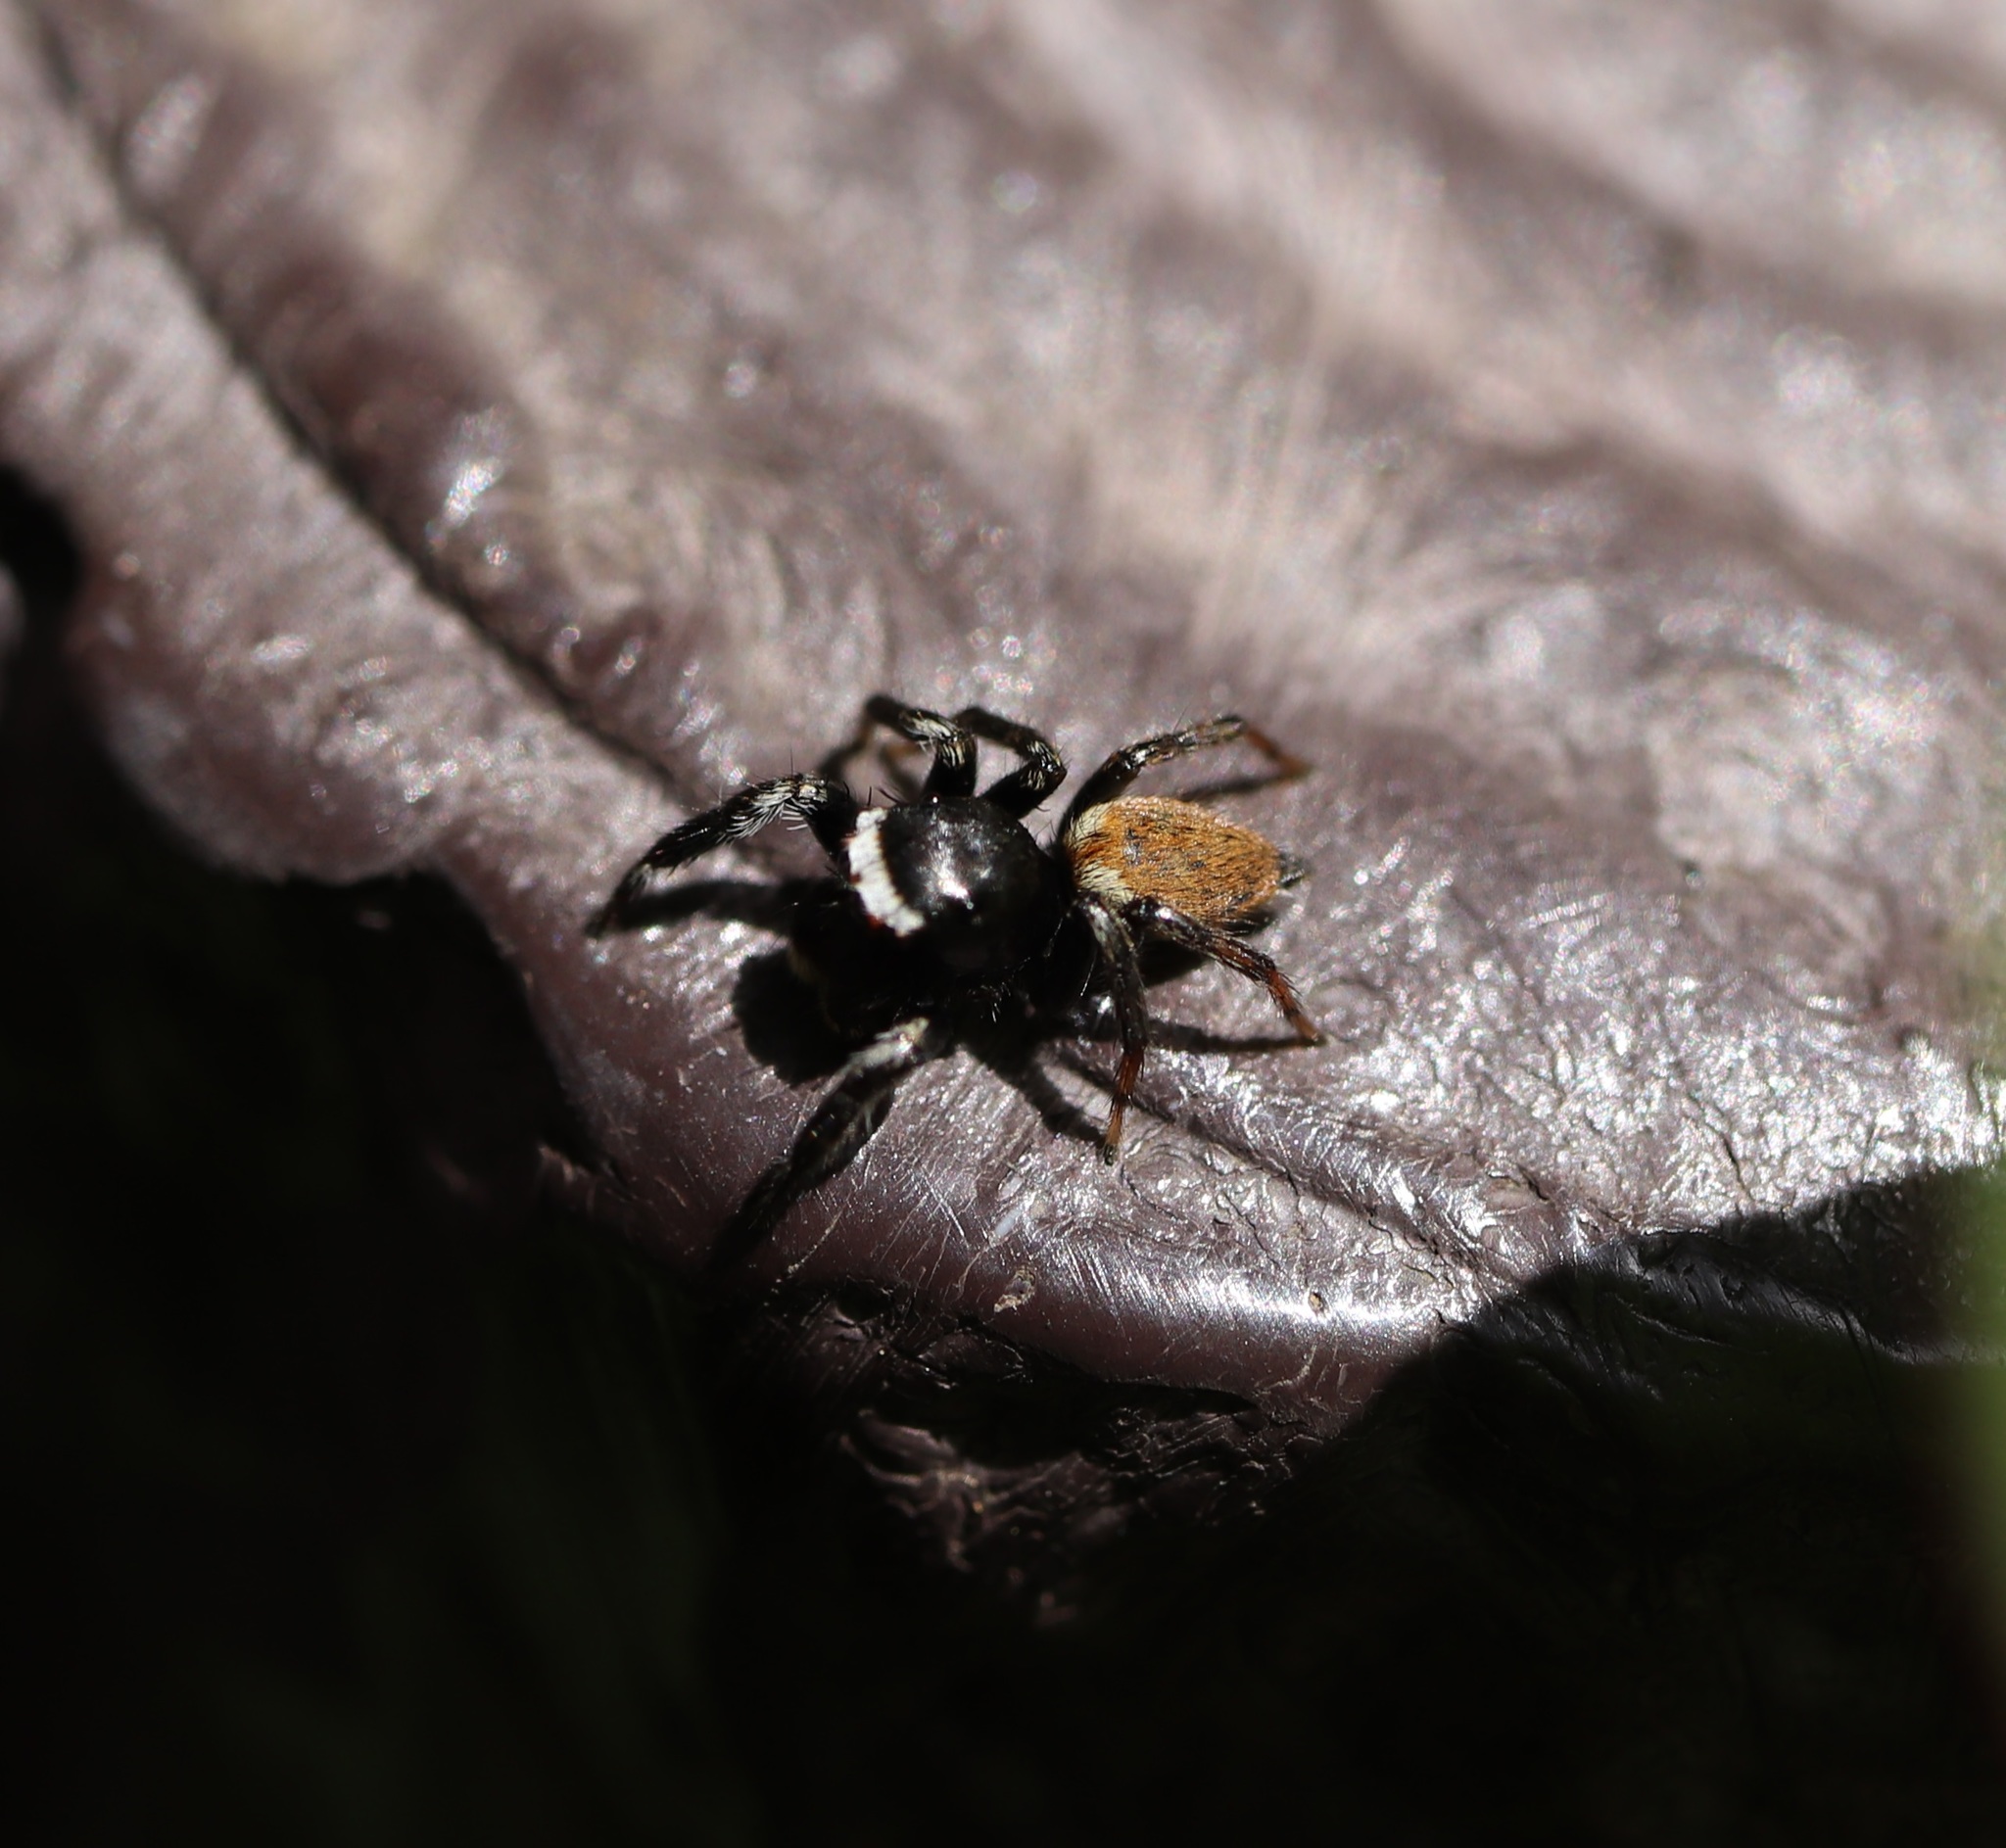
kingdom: Animalia
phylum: Arthropoda
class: Arachnida
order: Araneae
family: Salticidae
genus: Evarcha
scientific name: Evarcha albaria
